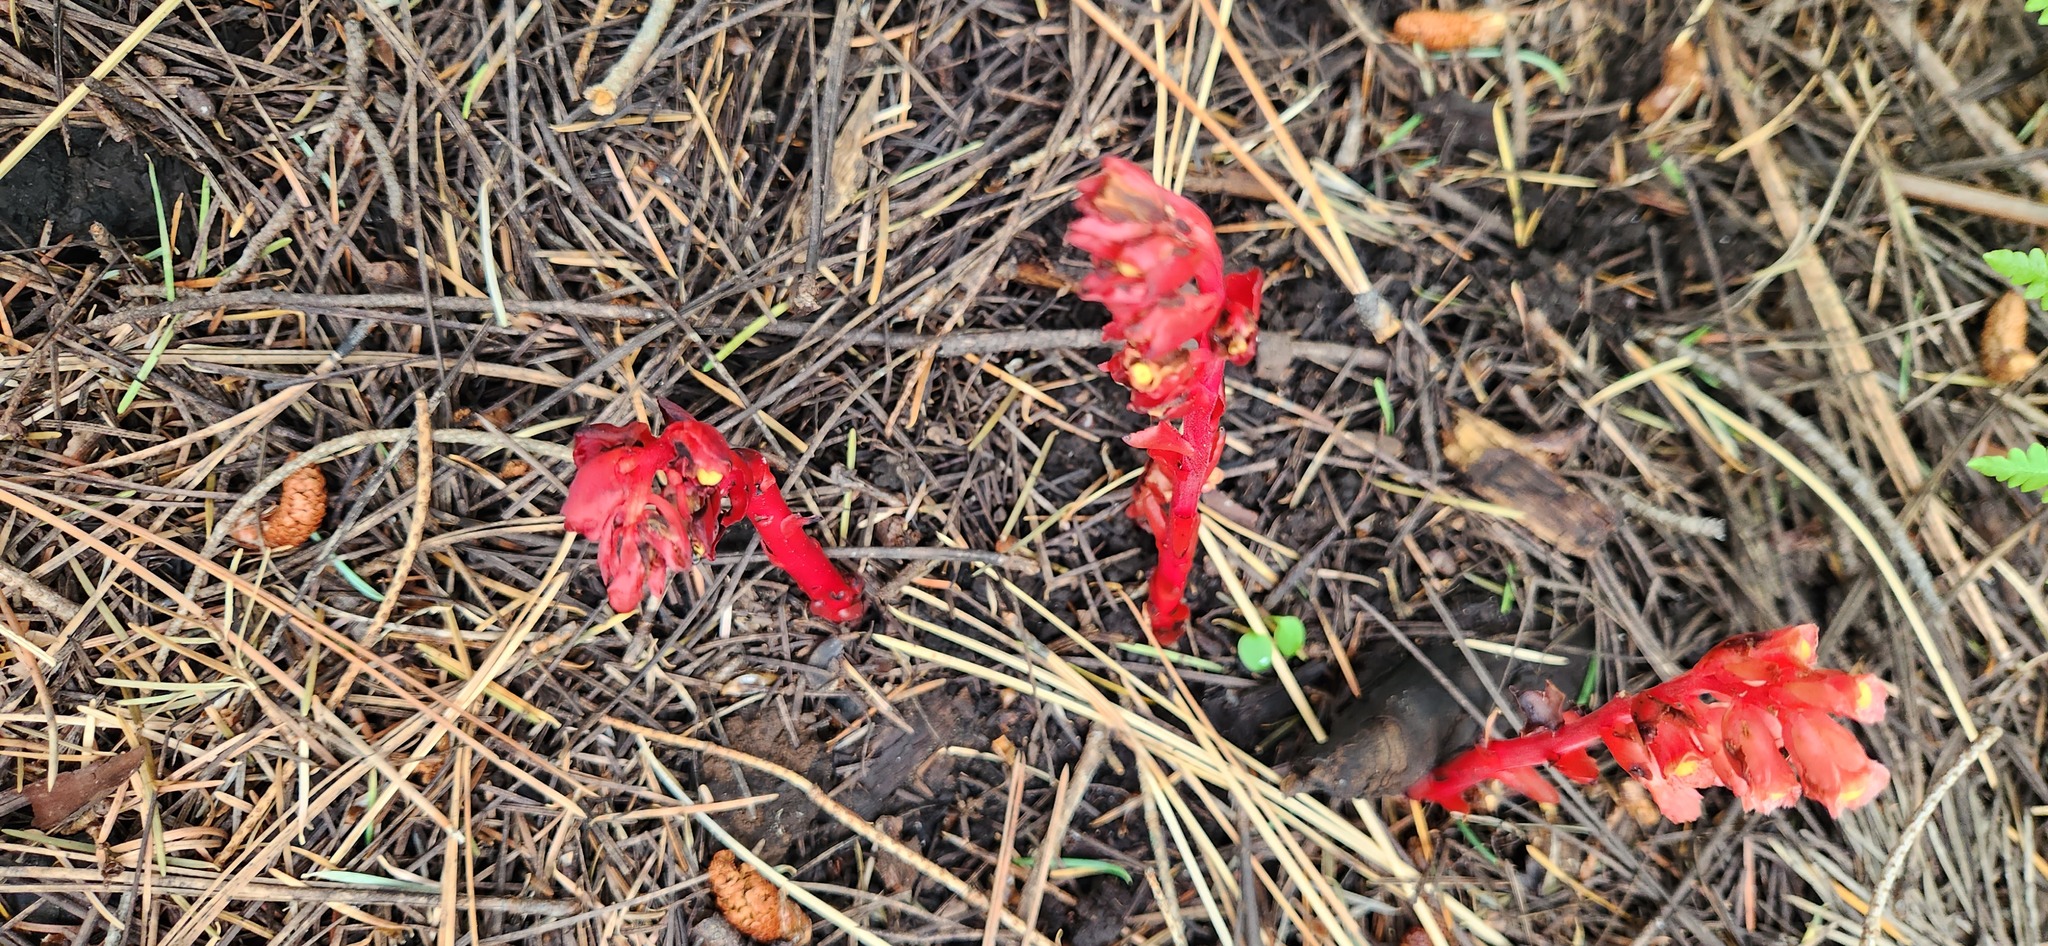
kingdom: Plantae
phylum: Tracheophyta
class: Magnoliopsida
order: Ericales
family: Ericaceae
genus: Hypopitys
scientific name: Hypopitys monotropa
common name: Yellow bird's-nest
